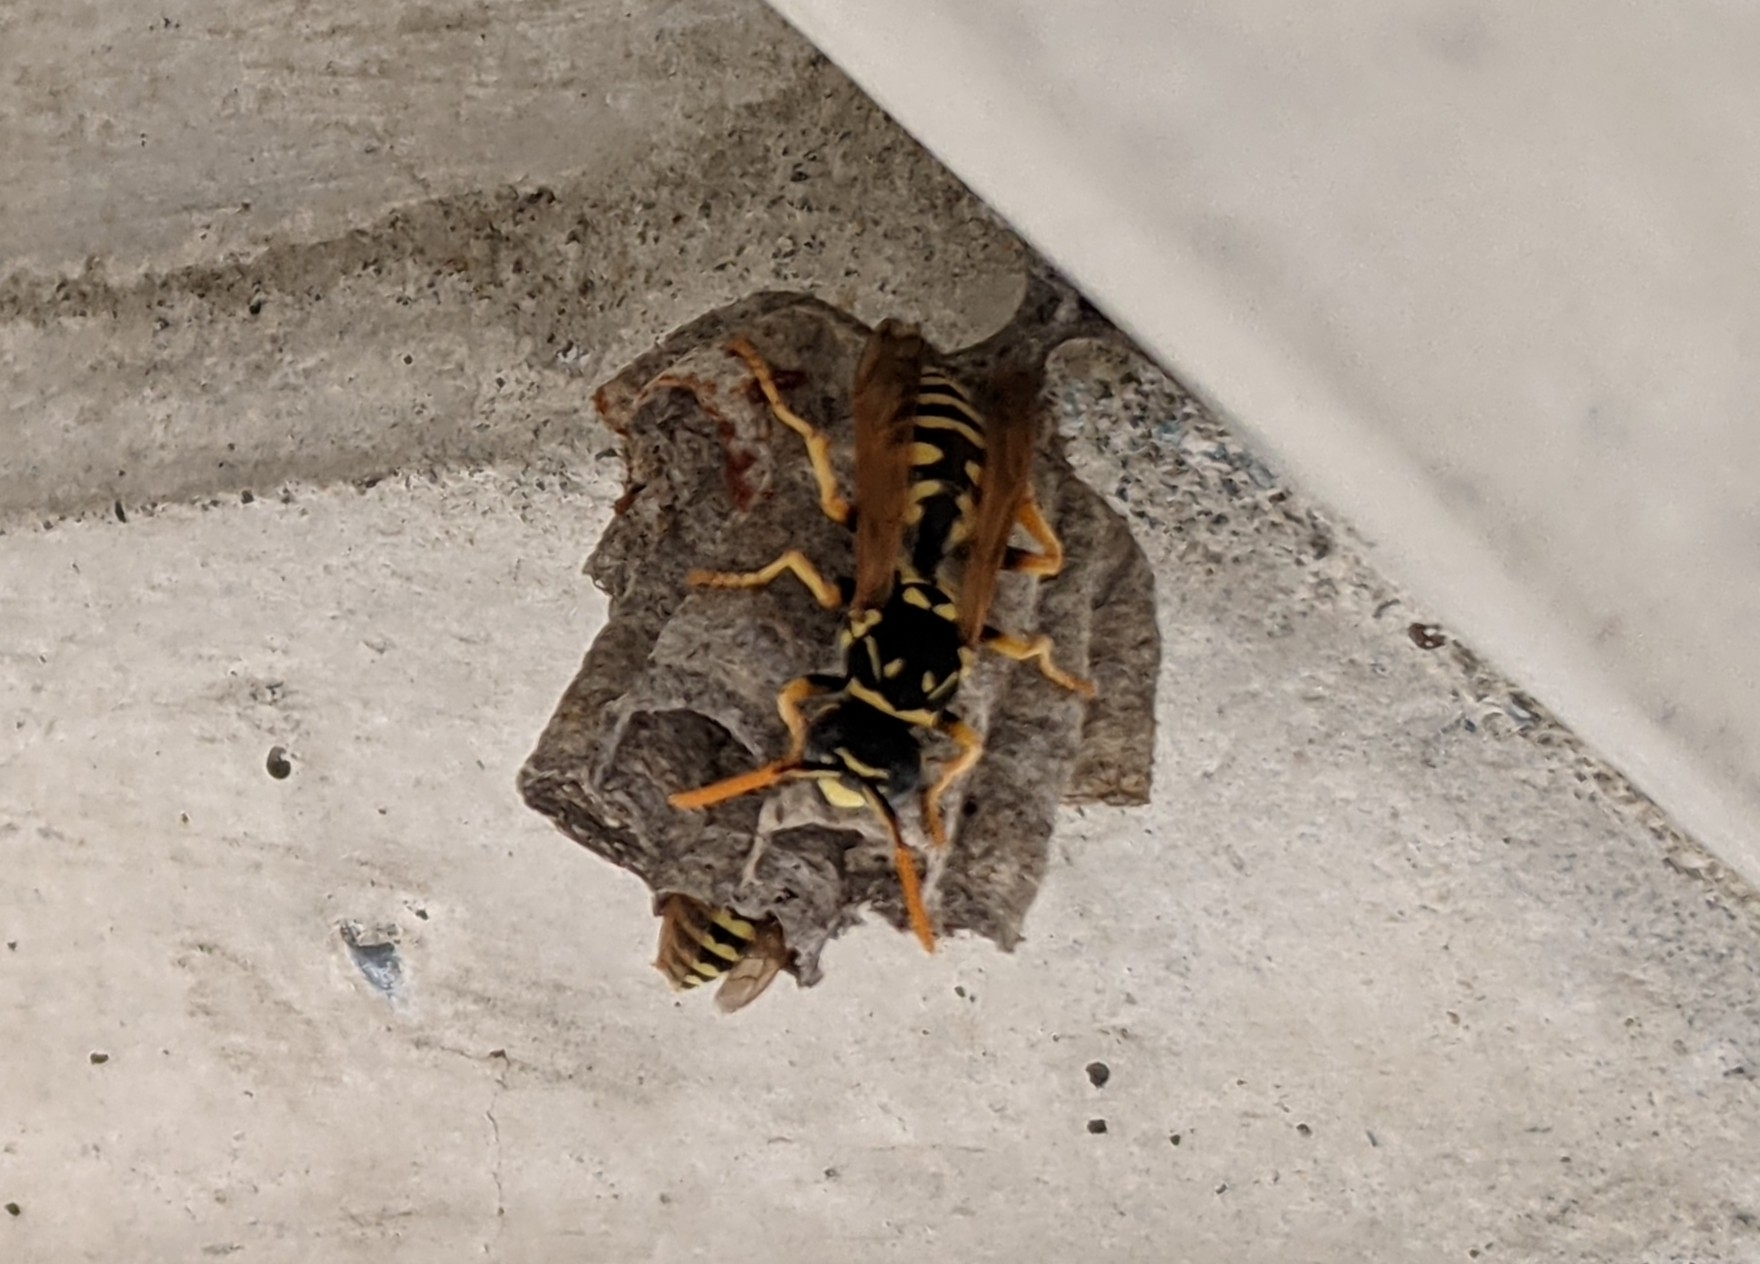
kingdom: Animalia
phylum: Arthropoda
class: Insecta
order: Hymenoptera
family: Eumenidae
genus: Polistes
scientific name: Polistes dominula
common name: Paper wasp
